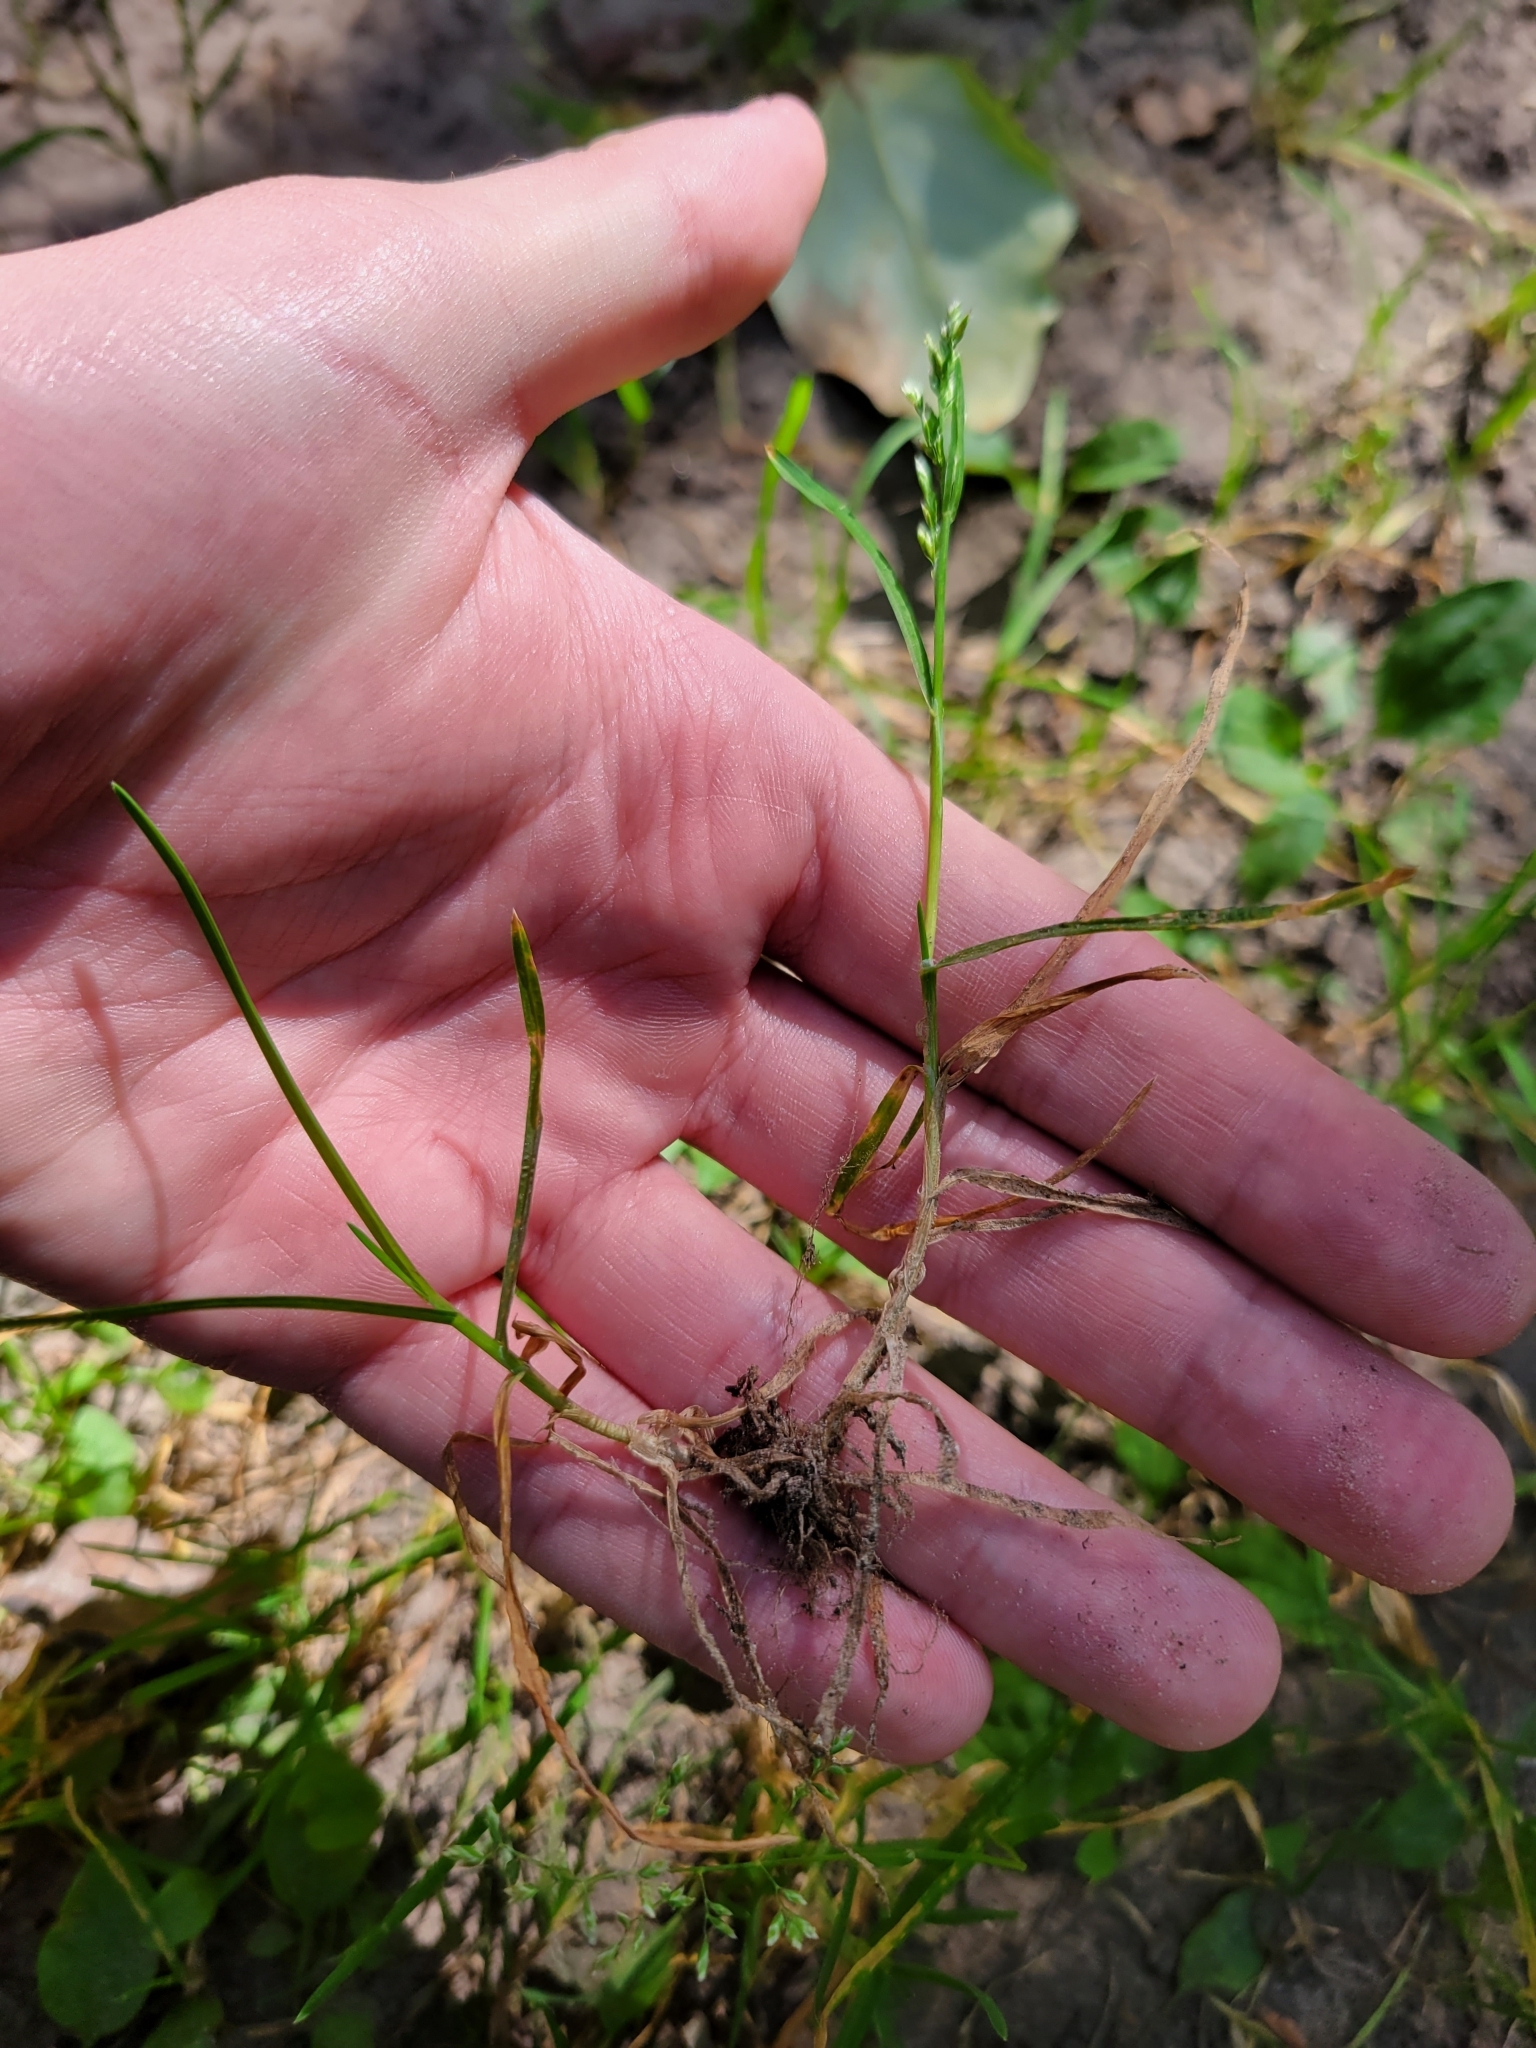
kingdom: Plantae
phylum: Tracheophyta
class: Liliopsida
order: Poales
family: Poaceae
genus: Poa
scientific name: Poa annua
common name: Annual bluegrass
